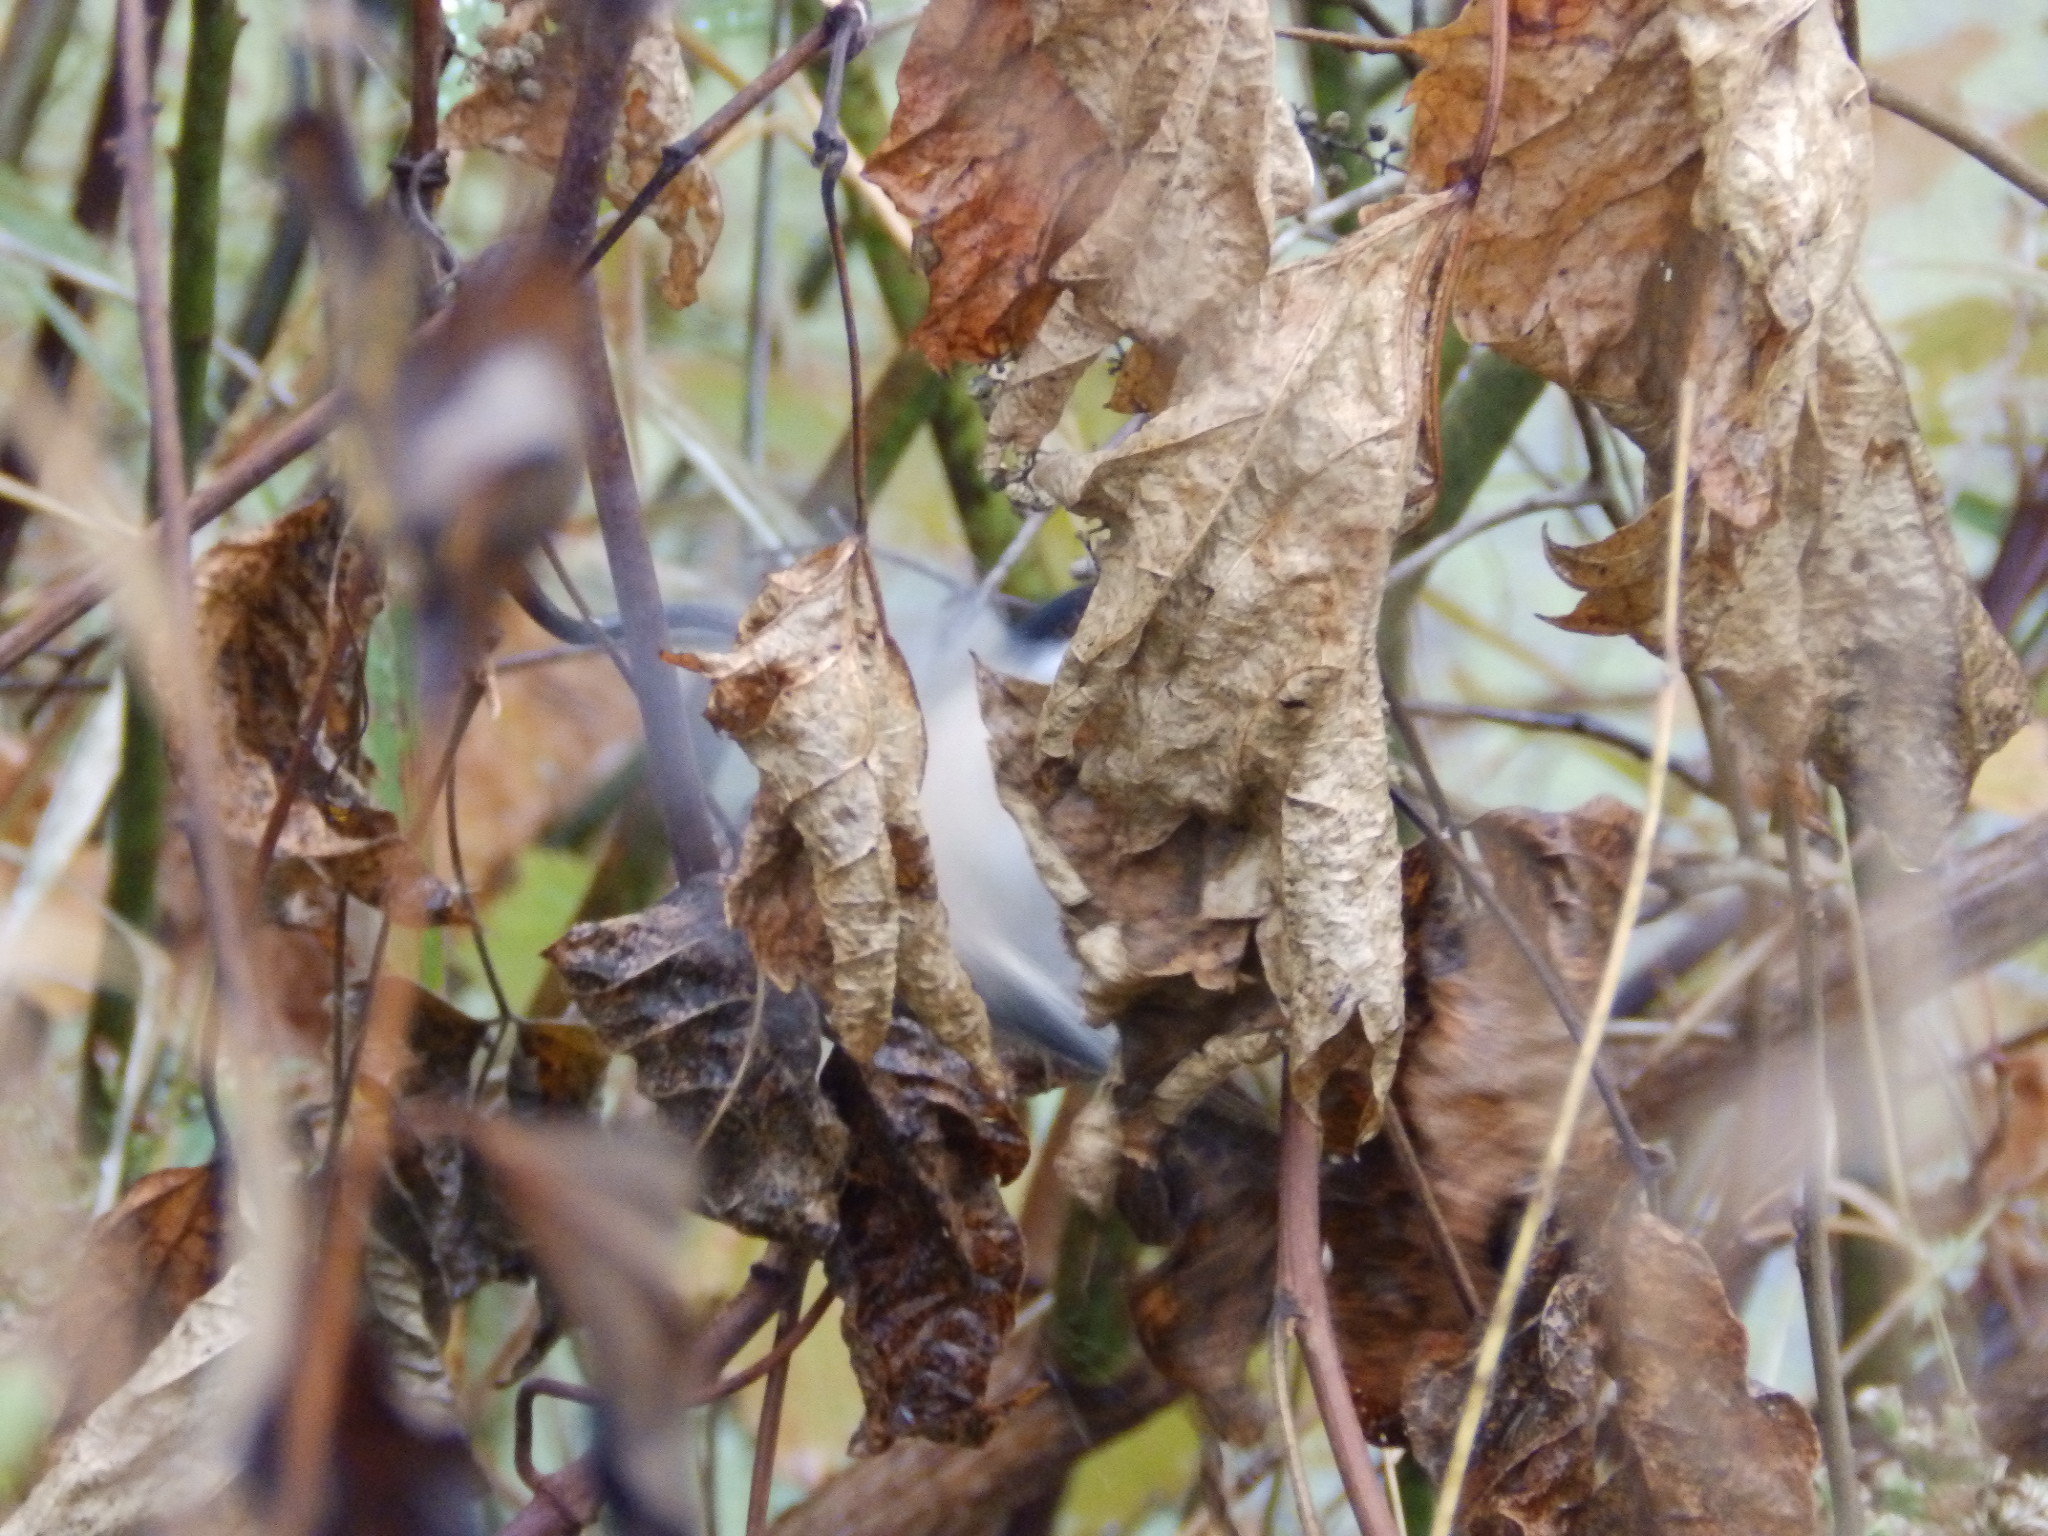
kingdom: Animalia
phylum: Chordata
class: Aves
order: Passeriformes
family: Paridae
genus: Poecile
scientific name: Poecile atricapillus
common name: Black-capped chickadee
